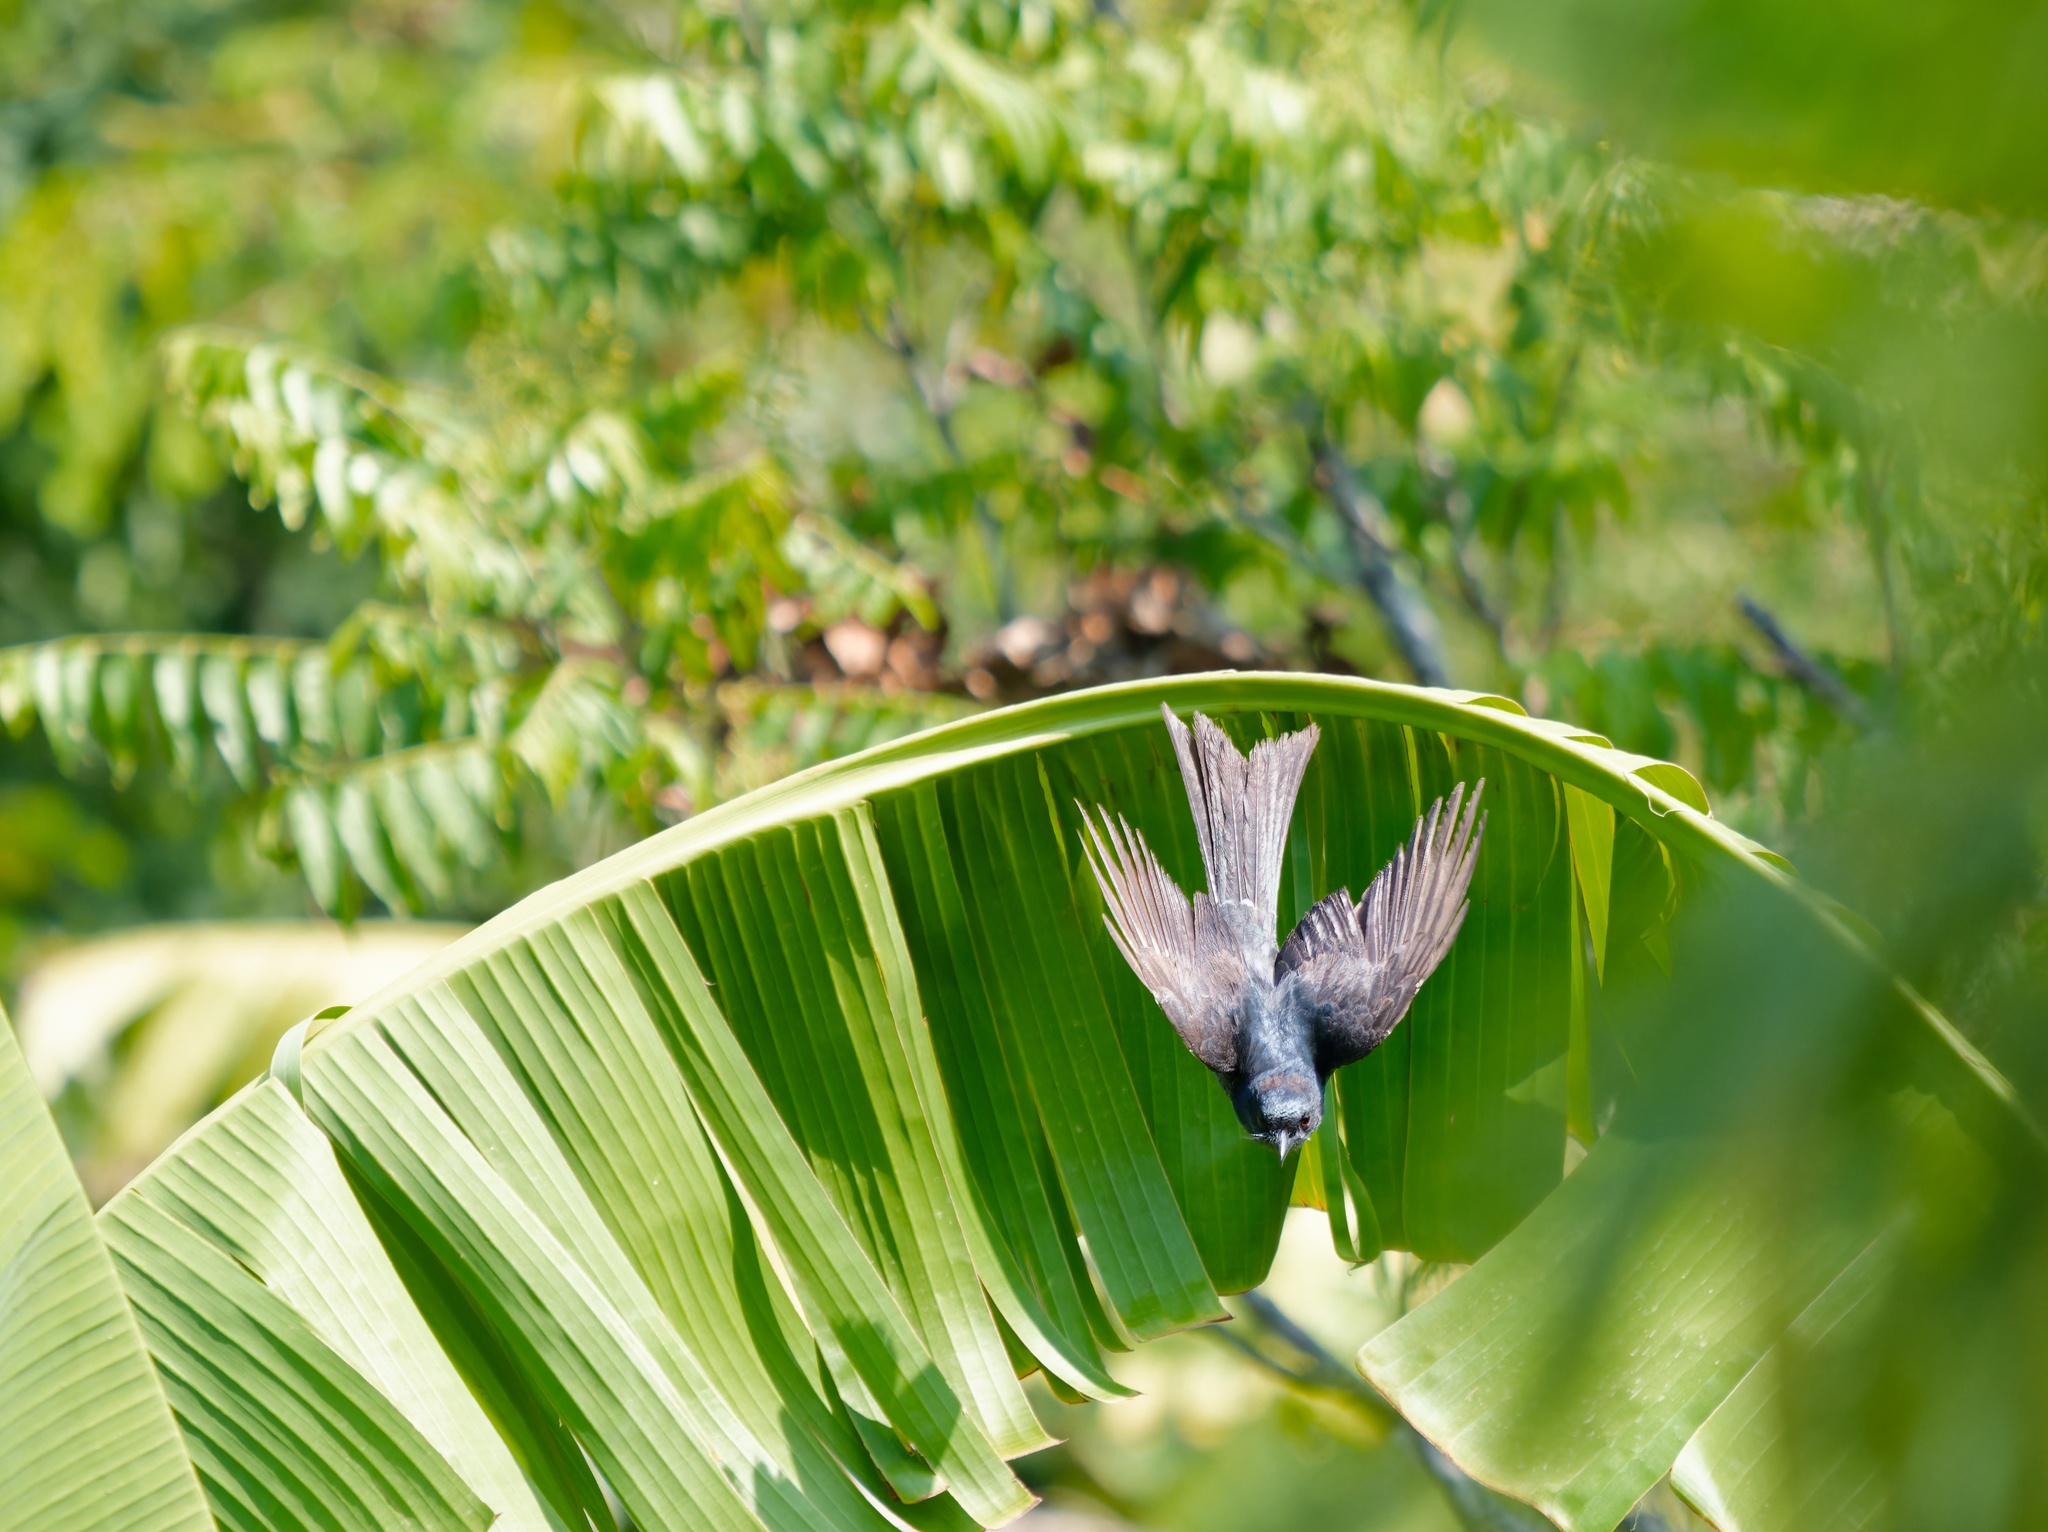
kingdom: Animalia
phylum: Chordata
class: Aves
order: Passeriformes
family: Dicruridae
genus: Dicrurus
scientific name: Dicrurus macrocercus
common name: Black drongo
